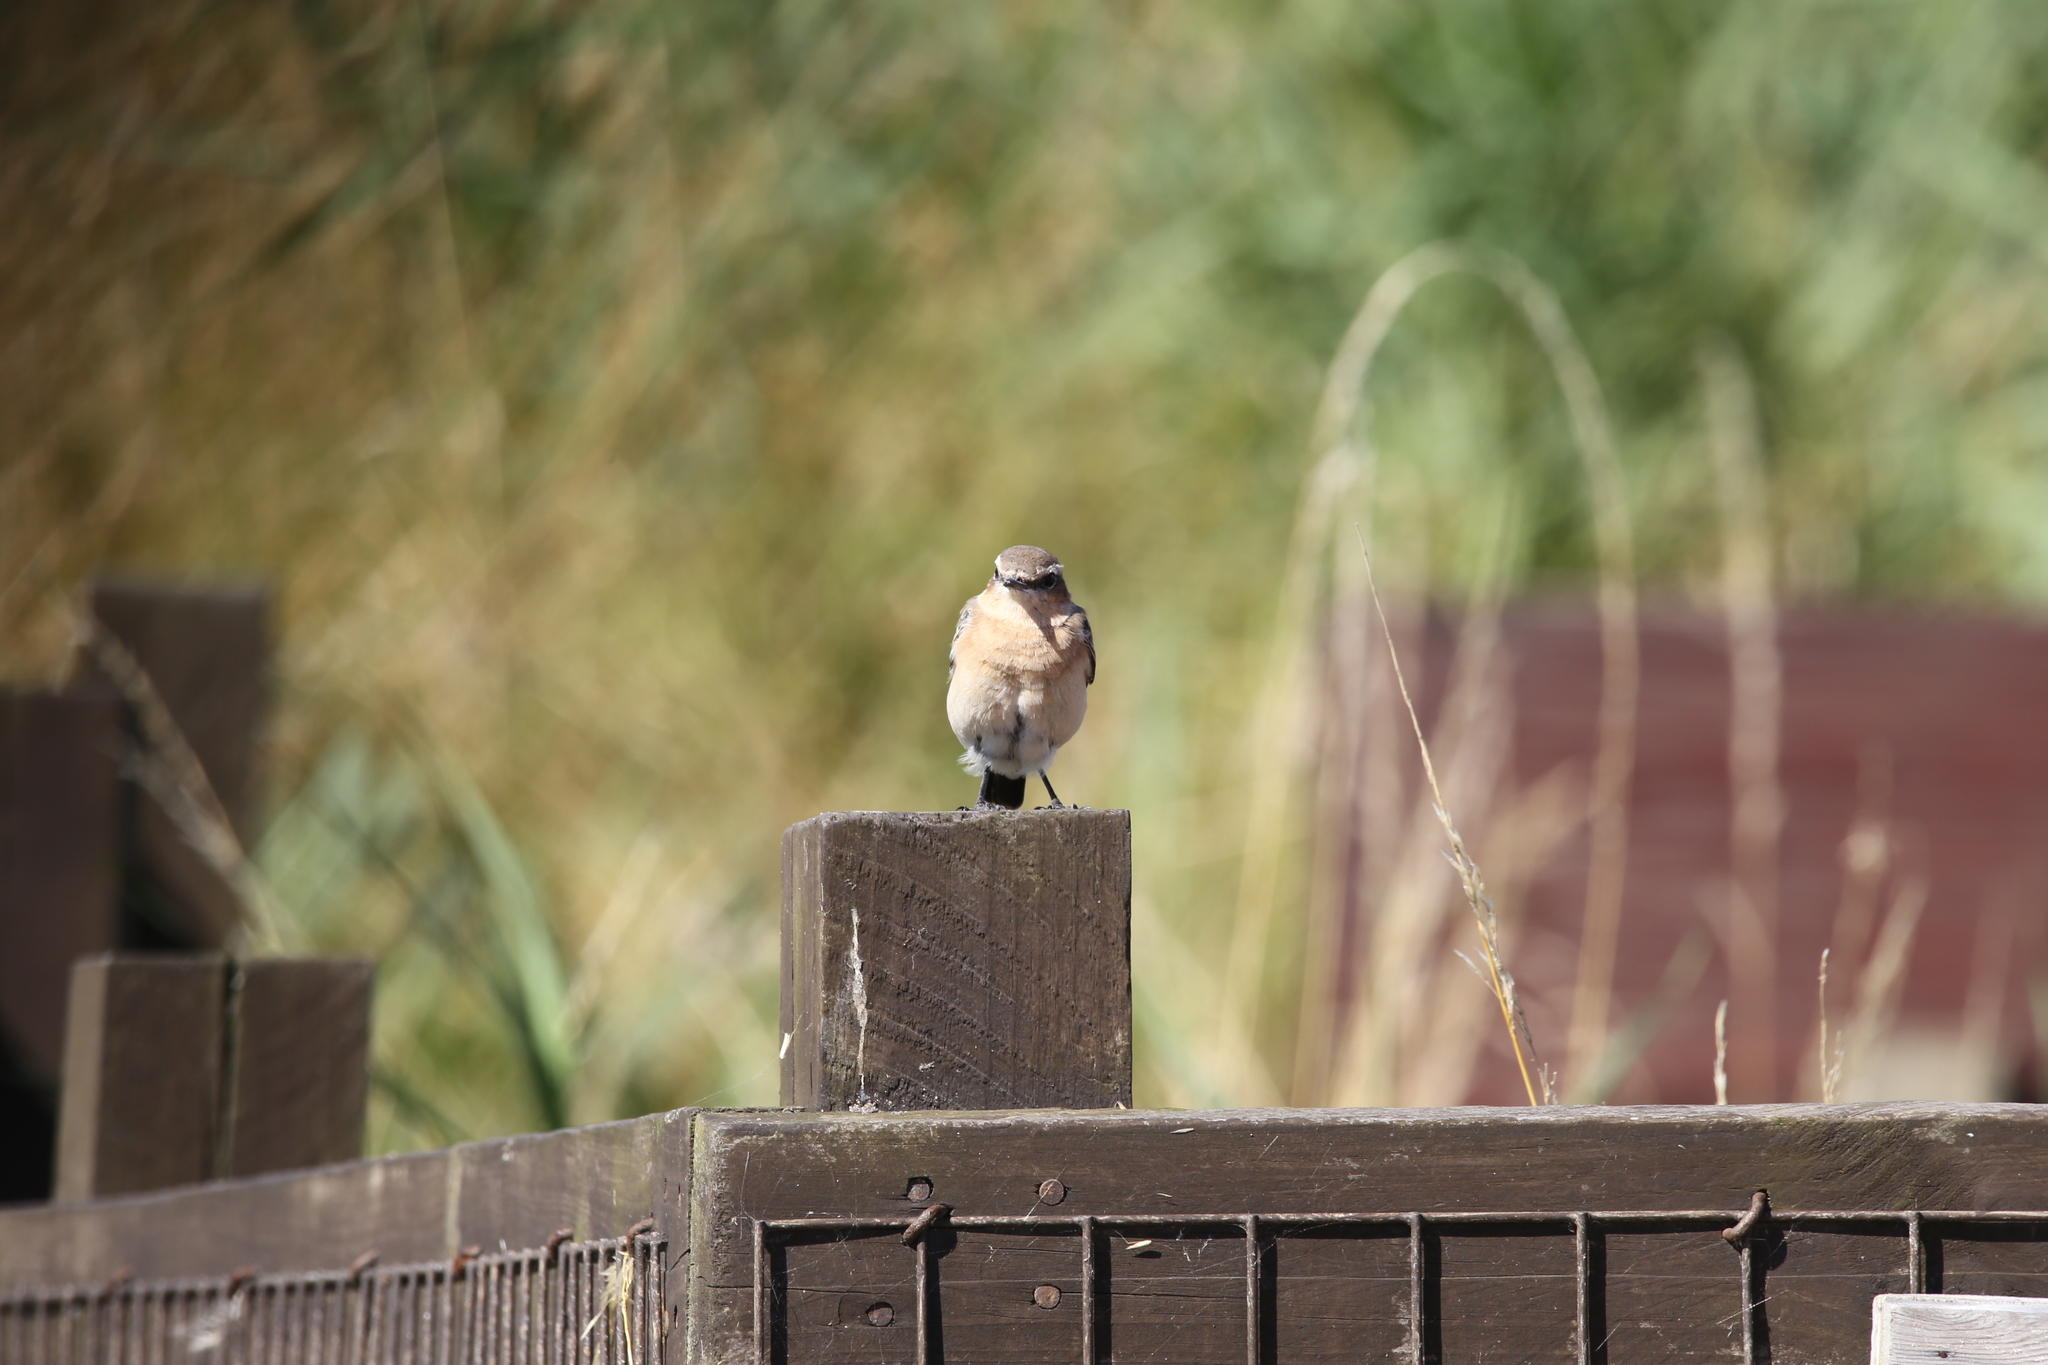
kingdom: Animalia
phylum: Chordata
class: Aves
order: Passeriformes
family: Muscicapidae
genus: Oenanthe
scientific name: Oenanthe oenanthe
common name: Northern wheatear
